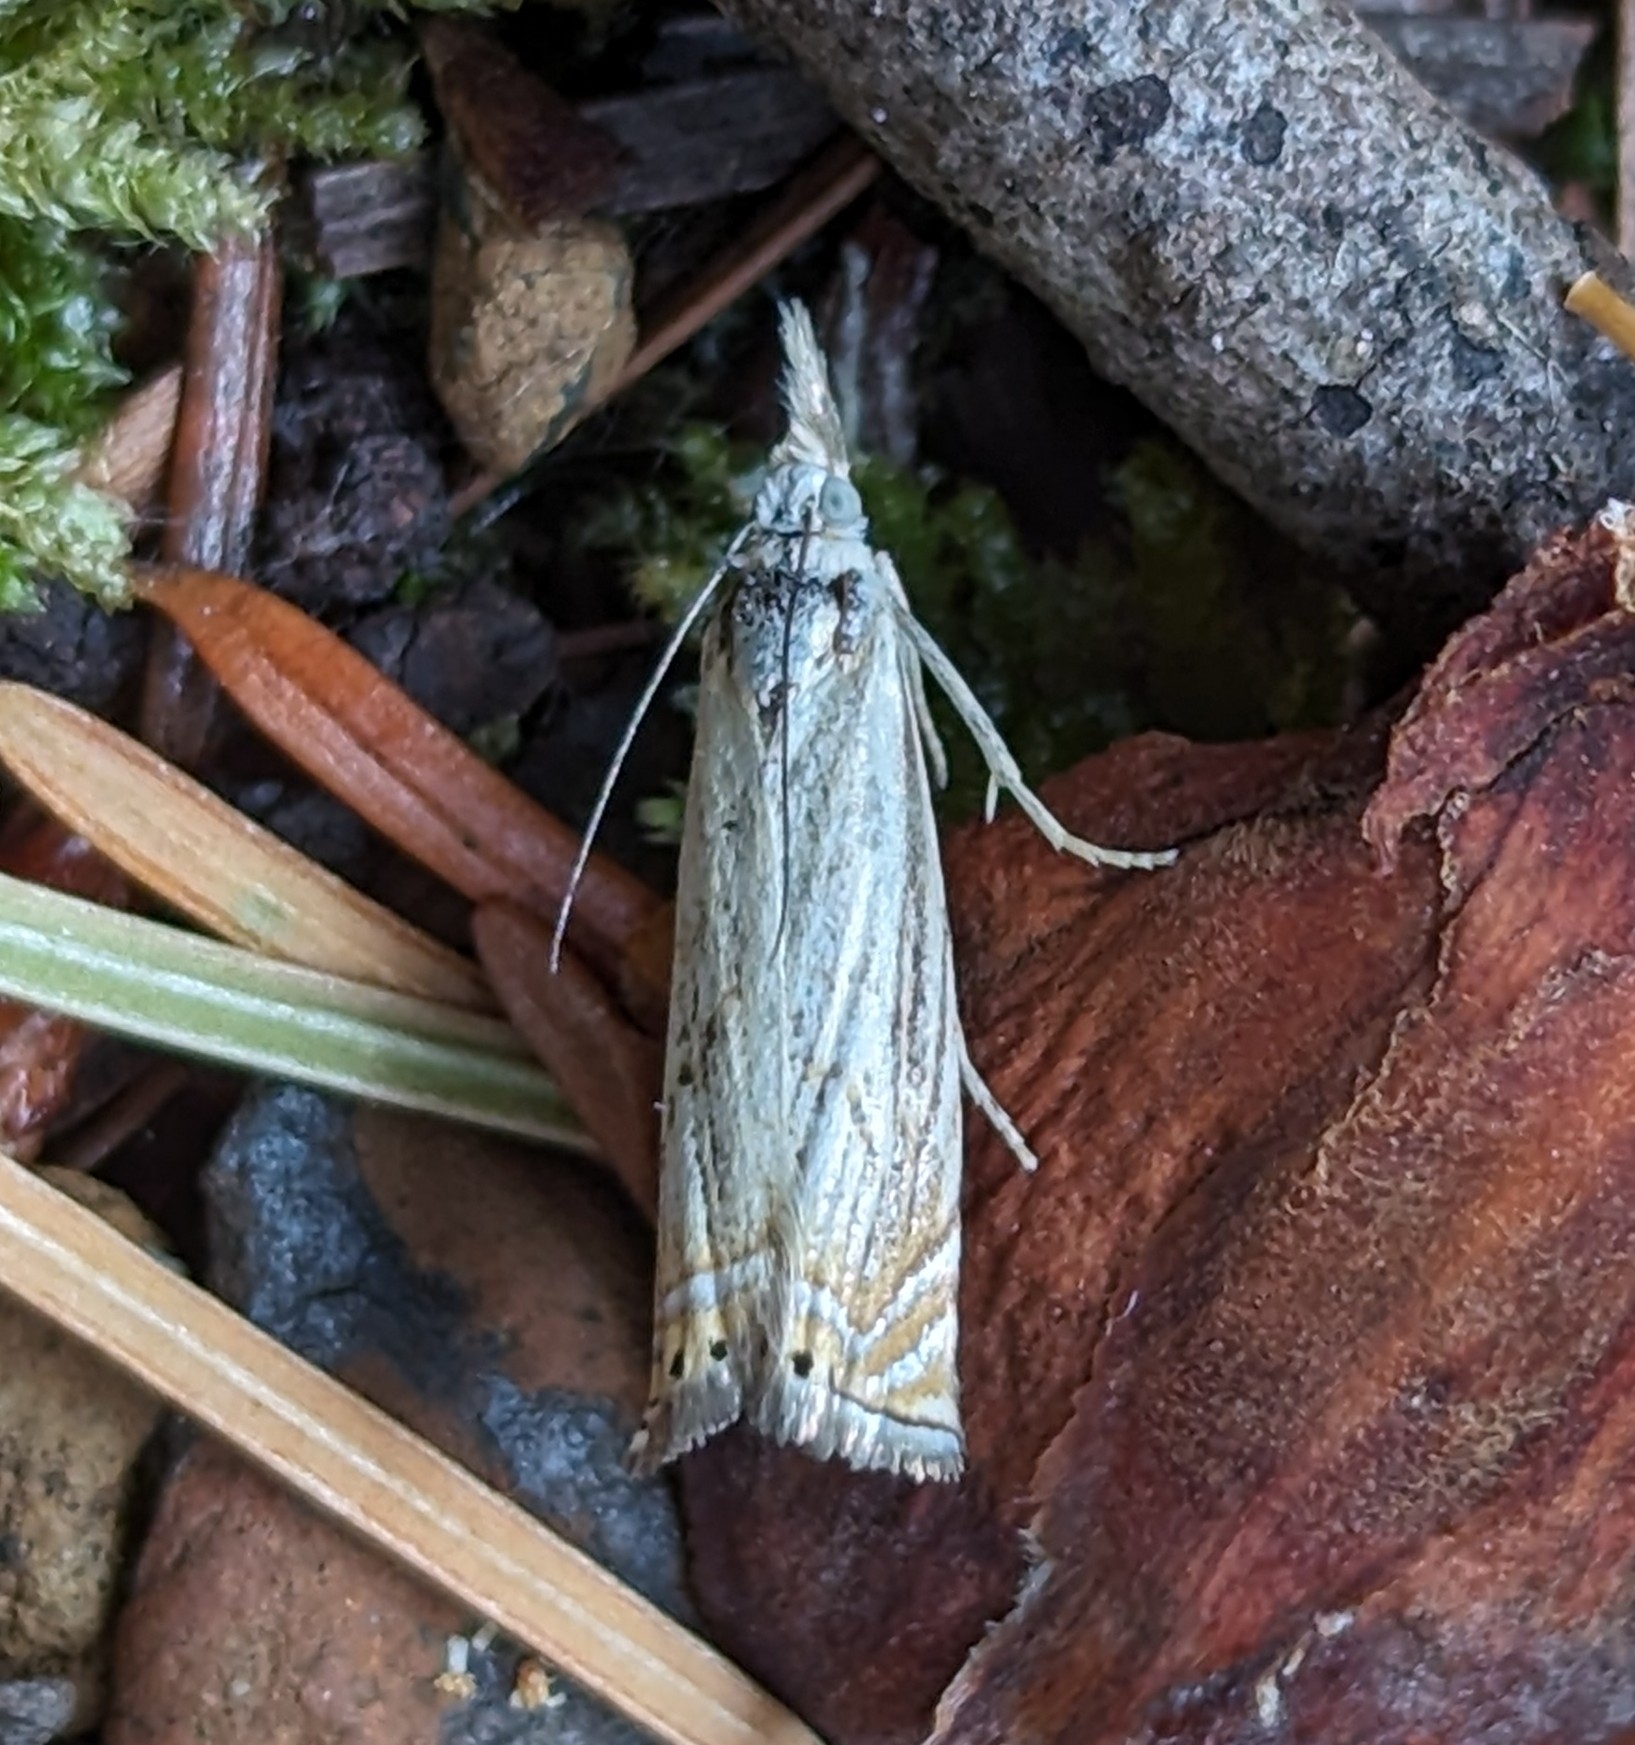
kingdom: Animalia
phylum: Arthropoda
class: Insecta
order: Lepidoptera
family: Crambidae
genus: Chrysoteuchia
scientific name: Chrysoteuchia topiarius
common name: Topiary grass-veneer
